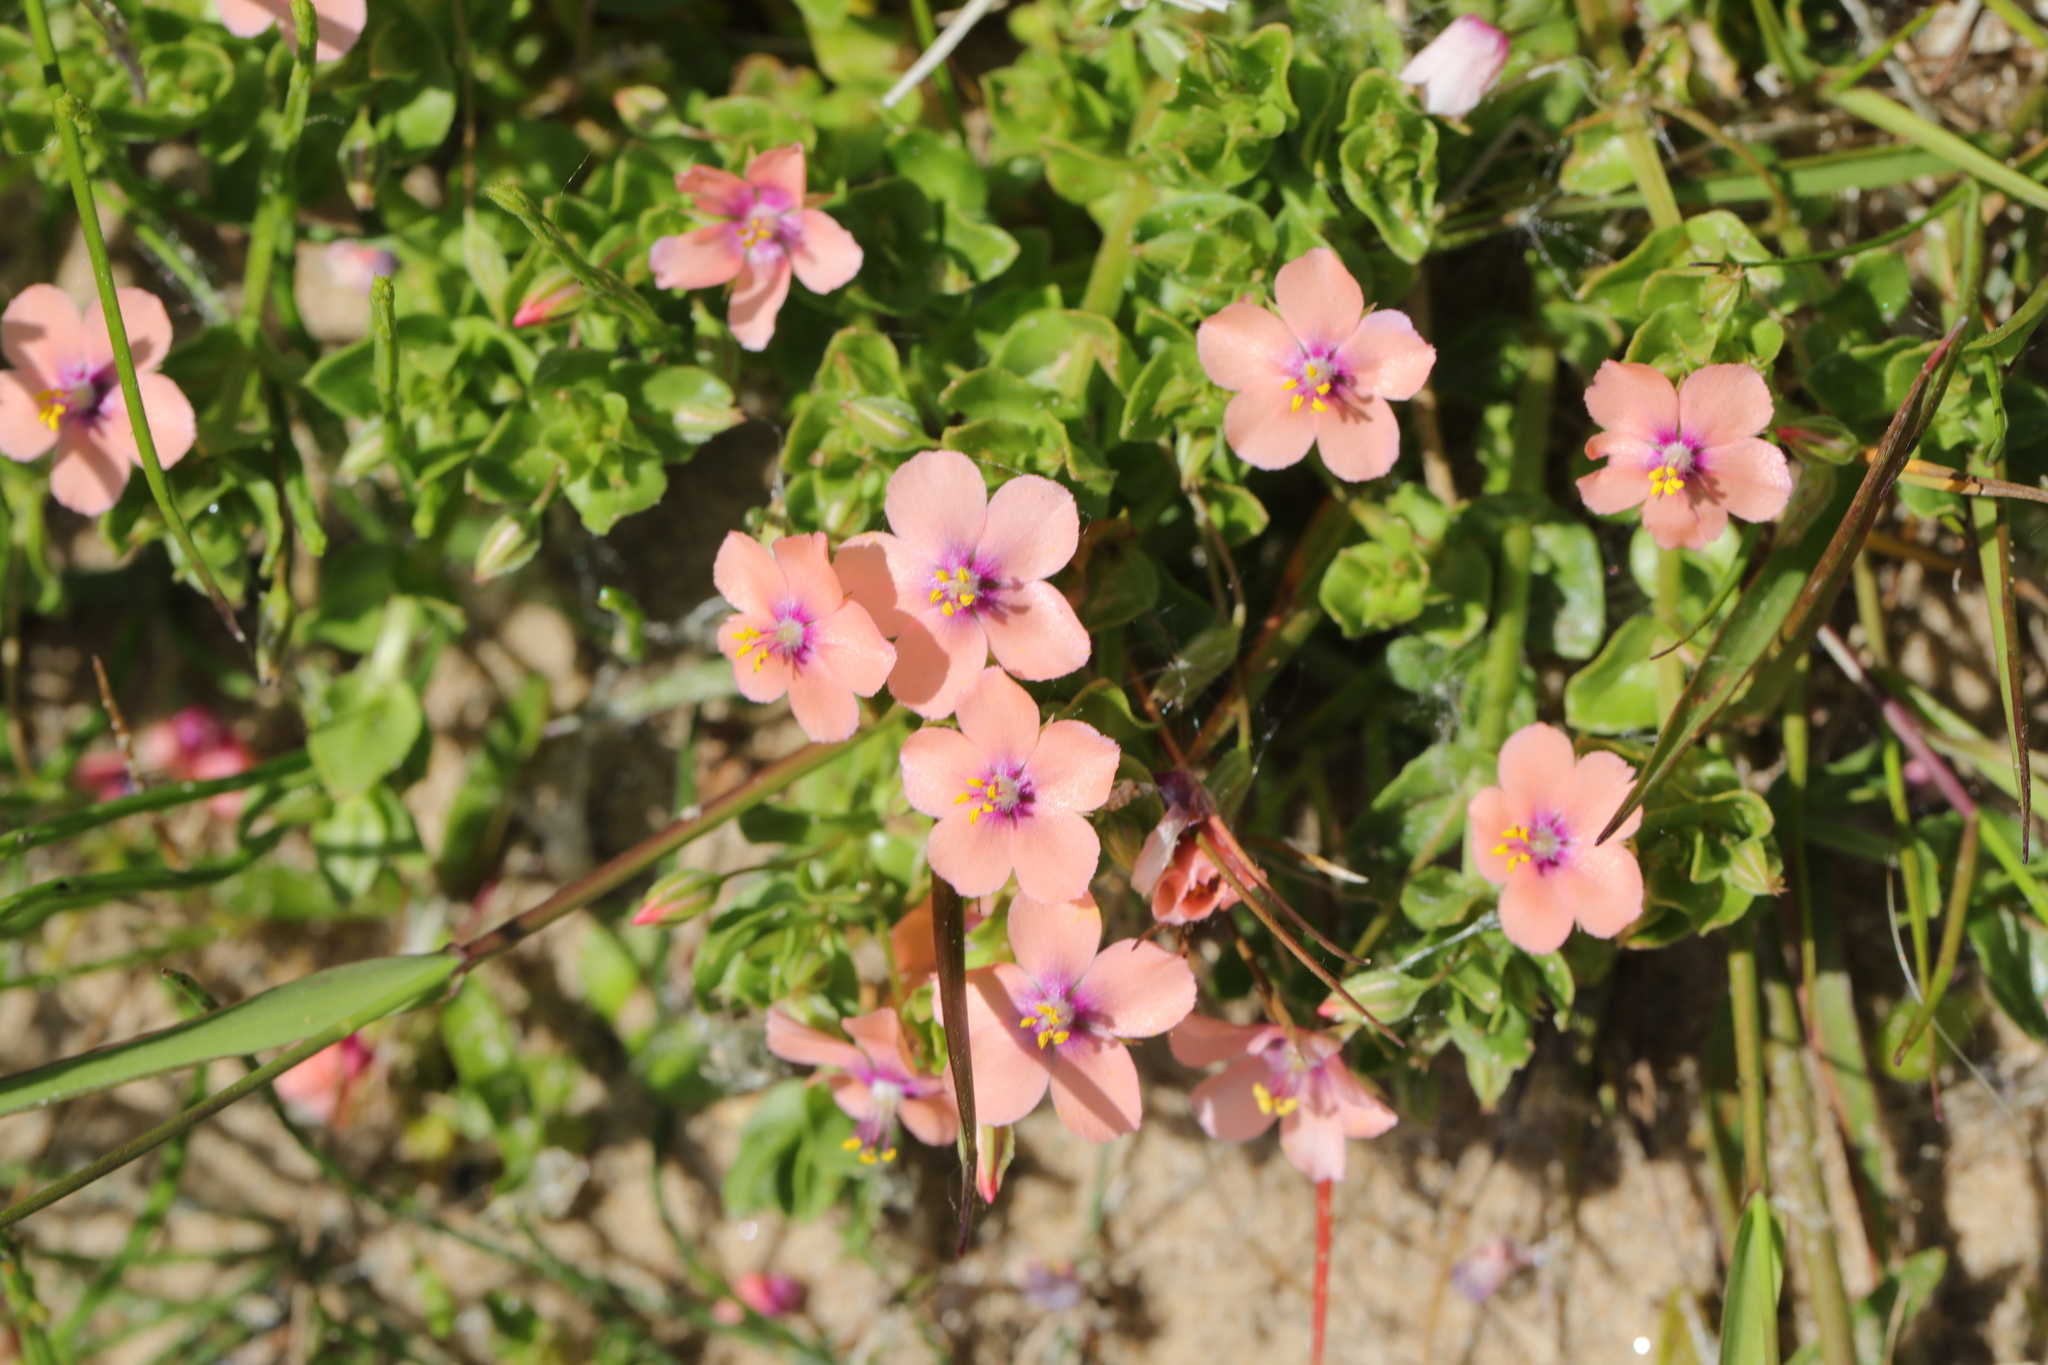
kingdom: Plantae
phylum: Tracheophyta
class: Magnoliopsida
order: Ericales
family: Primulaceae
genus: Lysimachia
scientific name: Lysimachia arvensis
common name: Scarlet pimpernel
